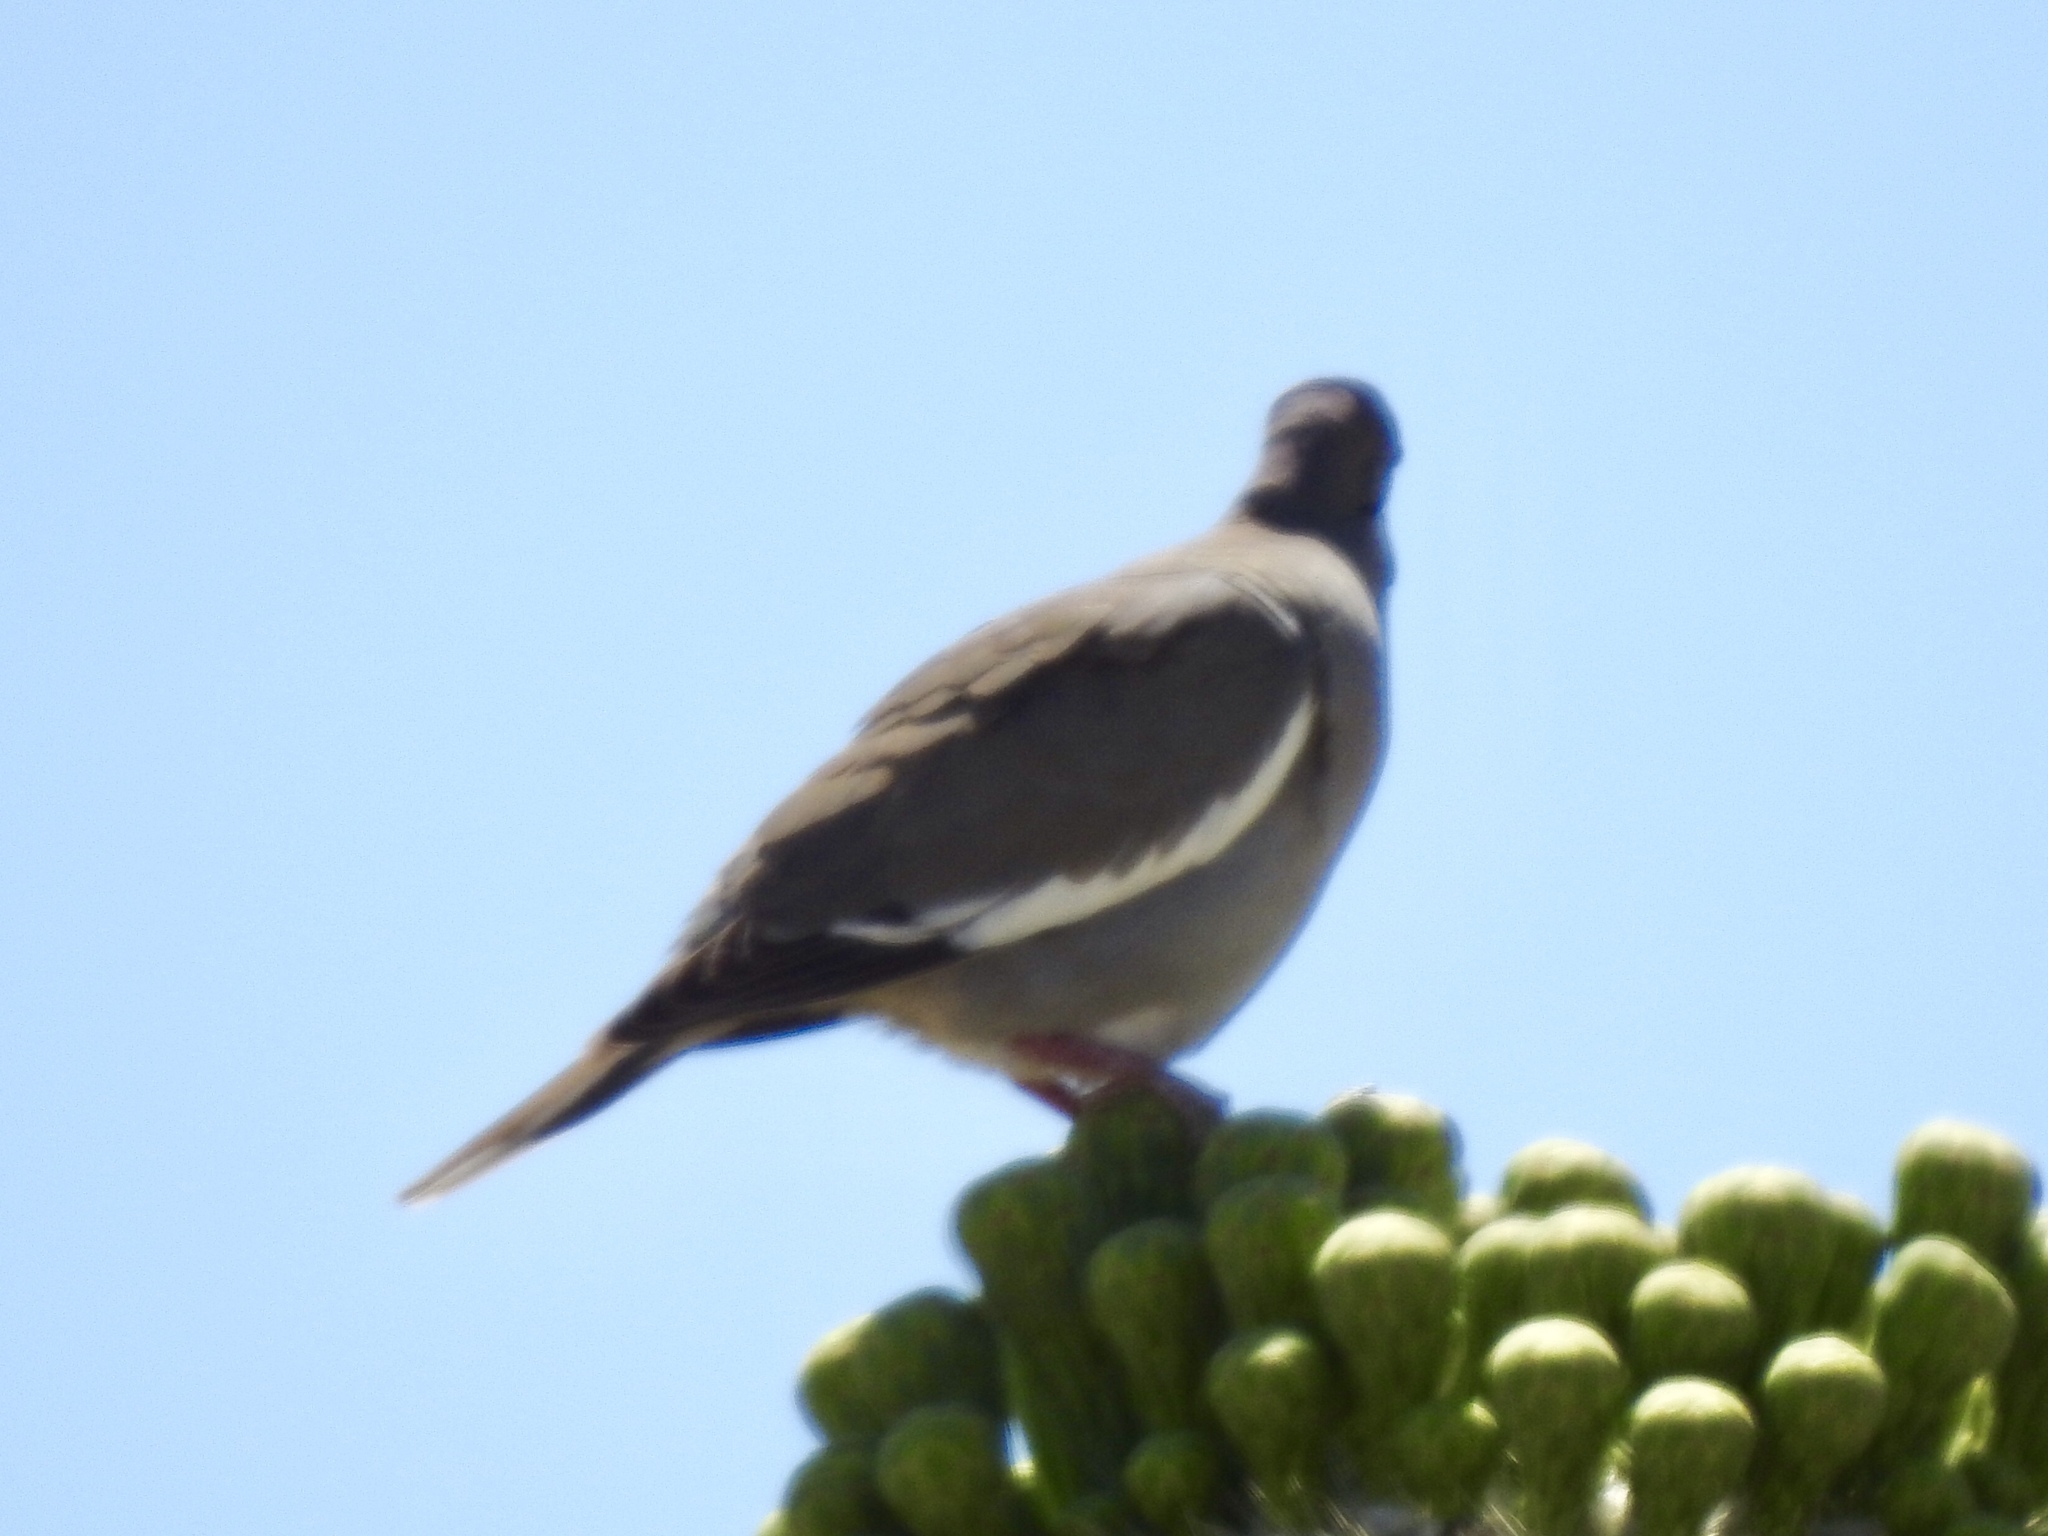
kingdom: Animalia
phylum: Chordata
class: Aves
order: Columbiformes
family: Columbidae
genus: Zenaida
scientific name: Zenaida asiatica
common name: White-winged dove
